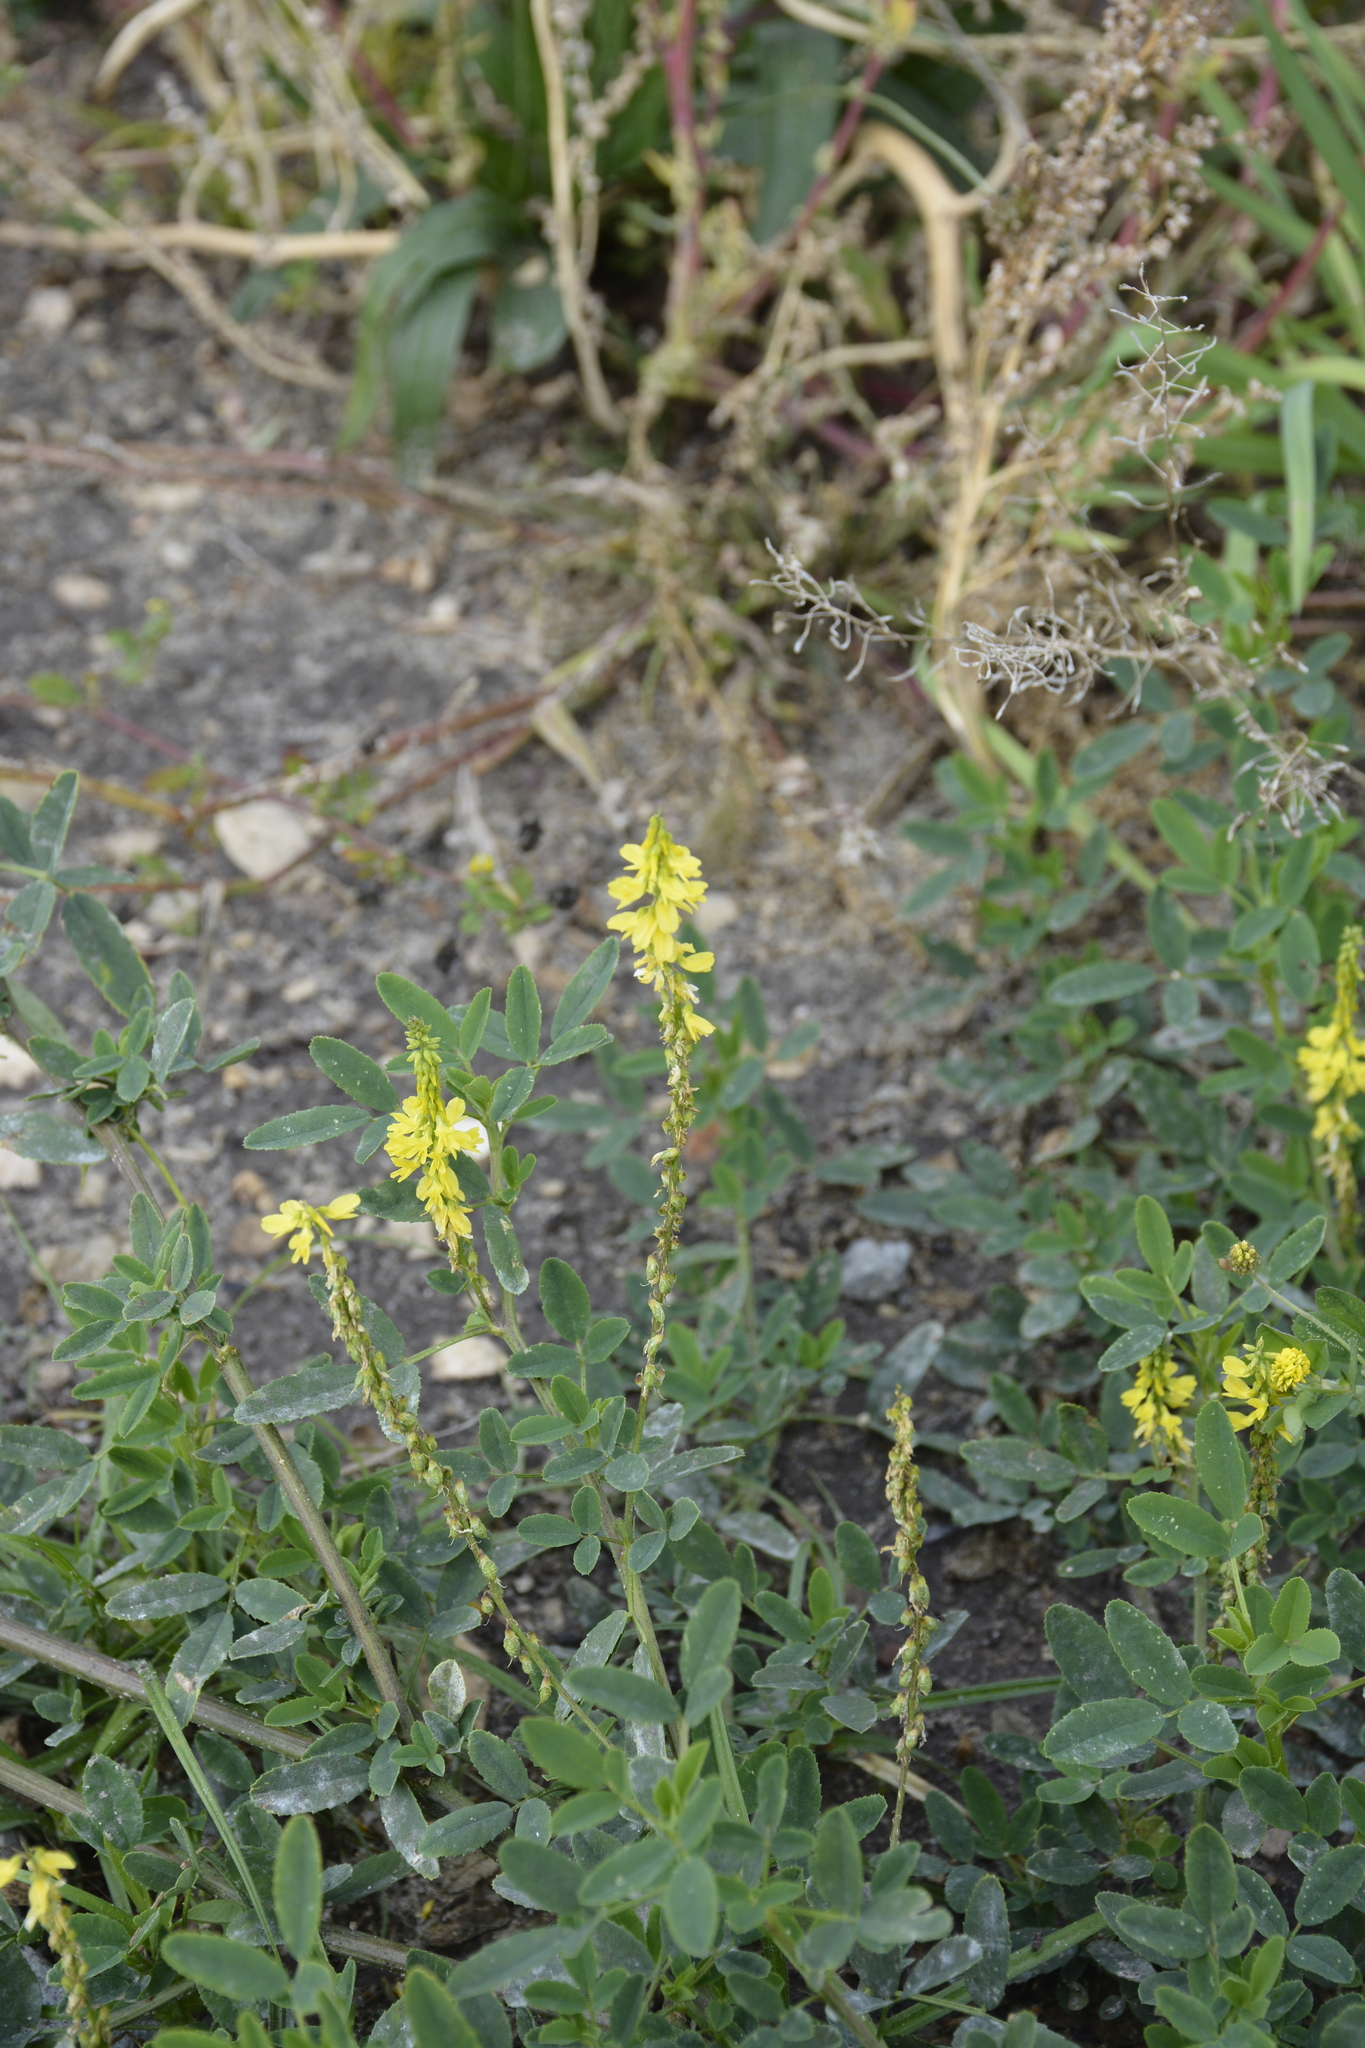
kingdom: Plantae
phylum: Tracheophyta
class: Magnoliopsida
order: Fabales
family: Fabaceae
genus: Melilotus
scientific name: Melilotus officinalis
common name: Sweetclover
